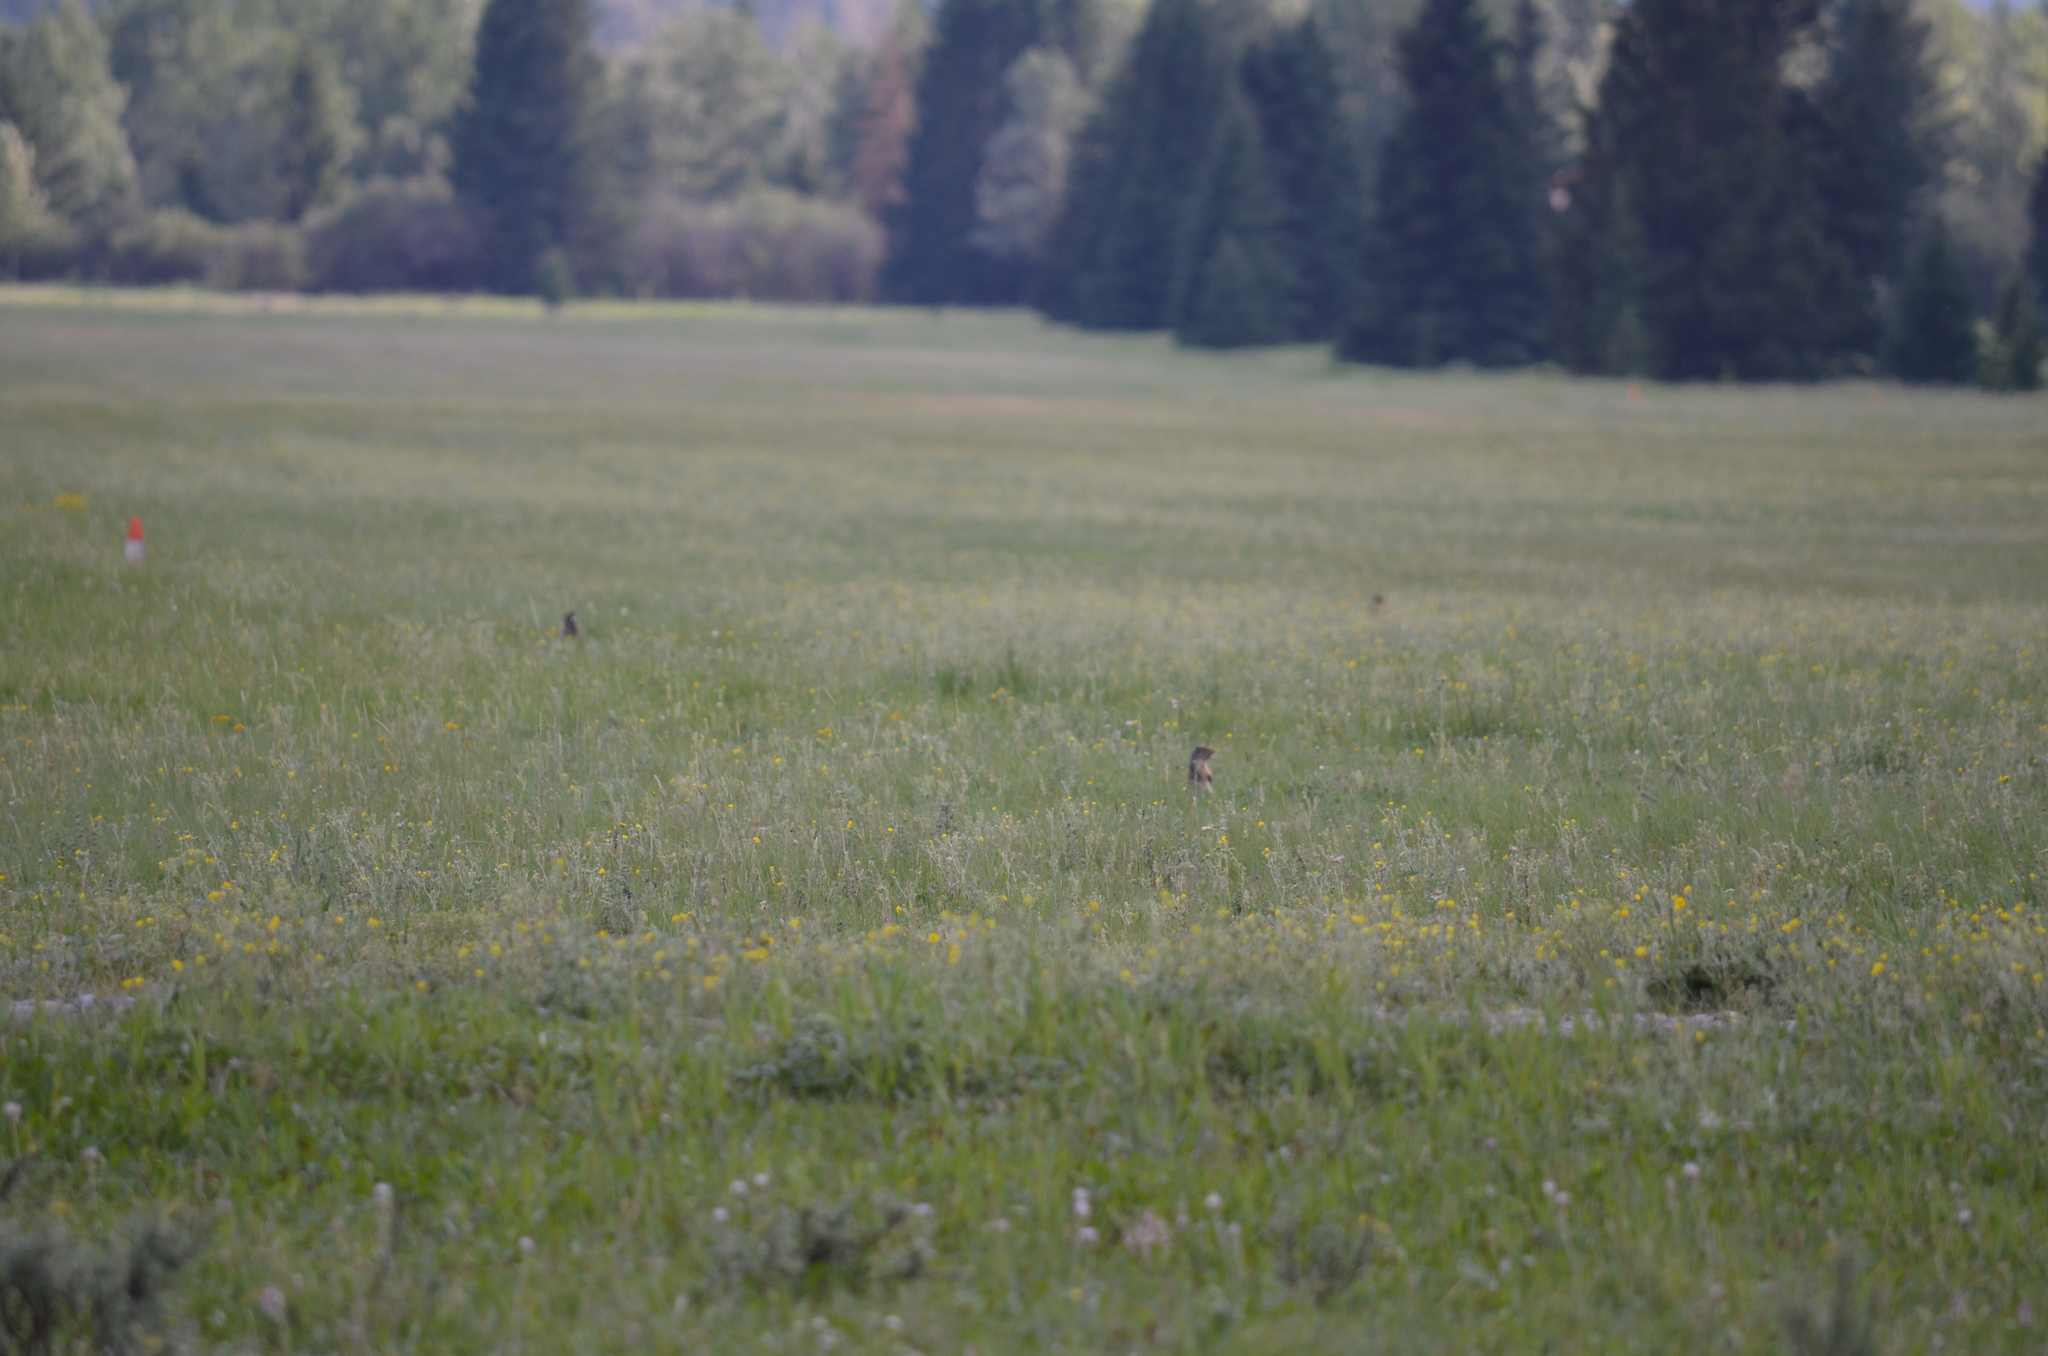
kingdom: Animalia
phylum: Chordata
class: Mammalia
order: Rodentia
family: Sciuridae
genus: Urocitellus
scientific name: Urocitellus columbianus
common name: Columbian ground squirrel
